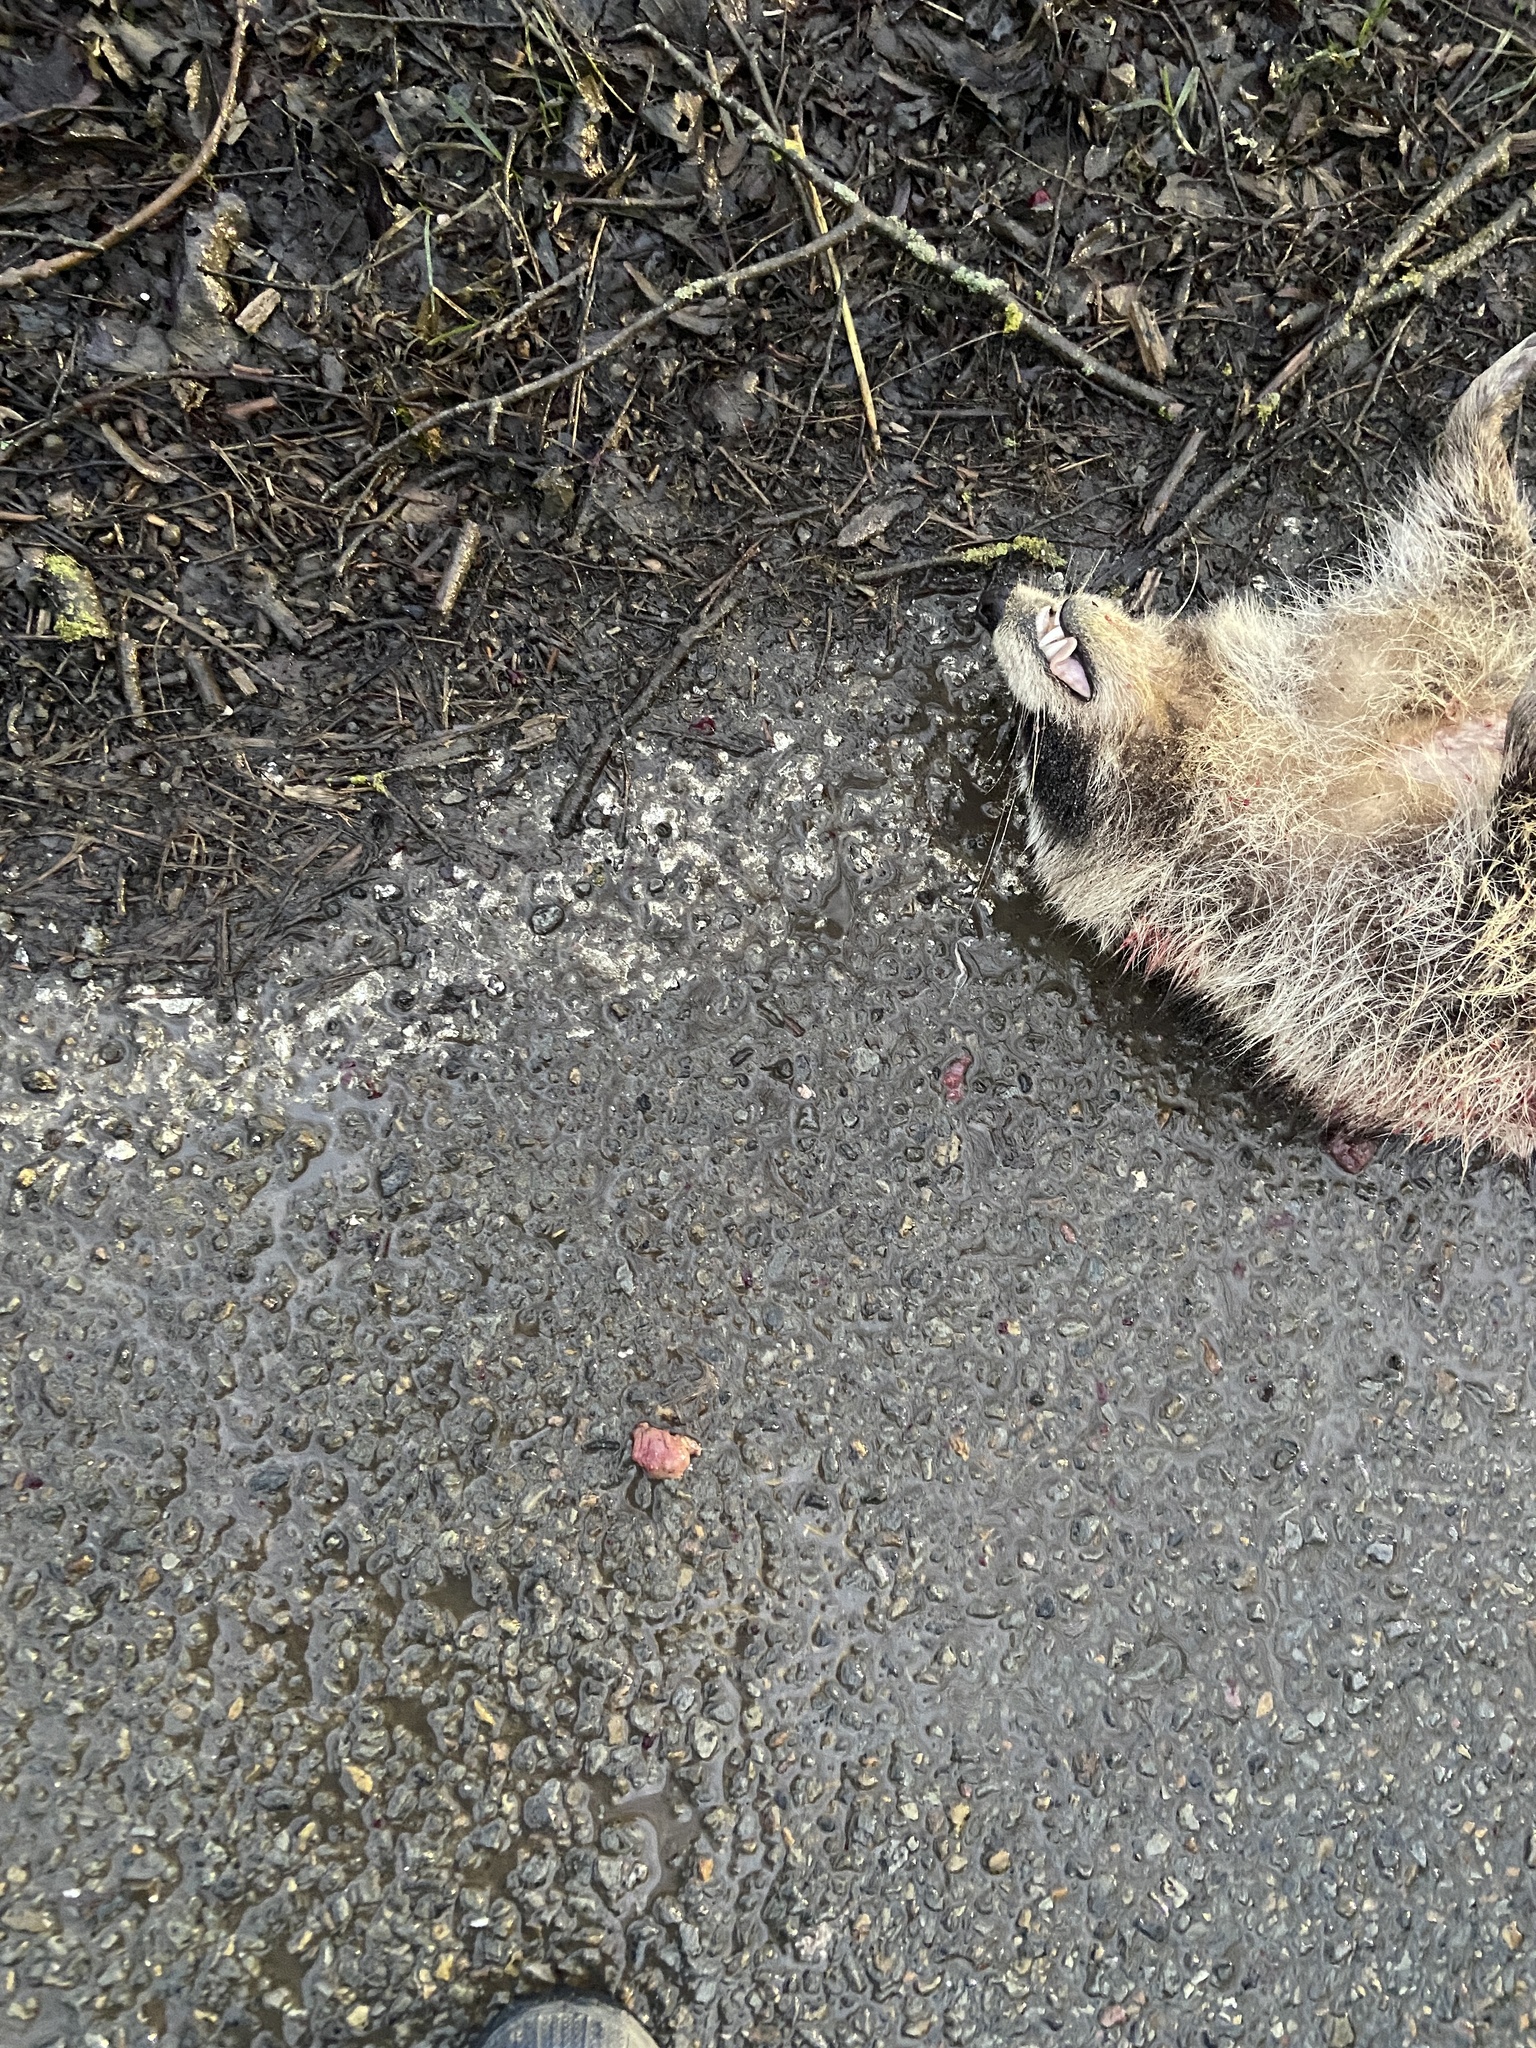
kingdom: Animalia
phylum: Chordata
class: Mammalia
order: Carnivora
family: Procyonidae
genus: Procyon
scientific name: Procyon lotor
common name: Raccoon
